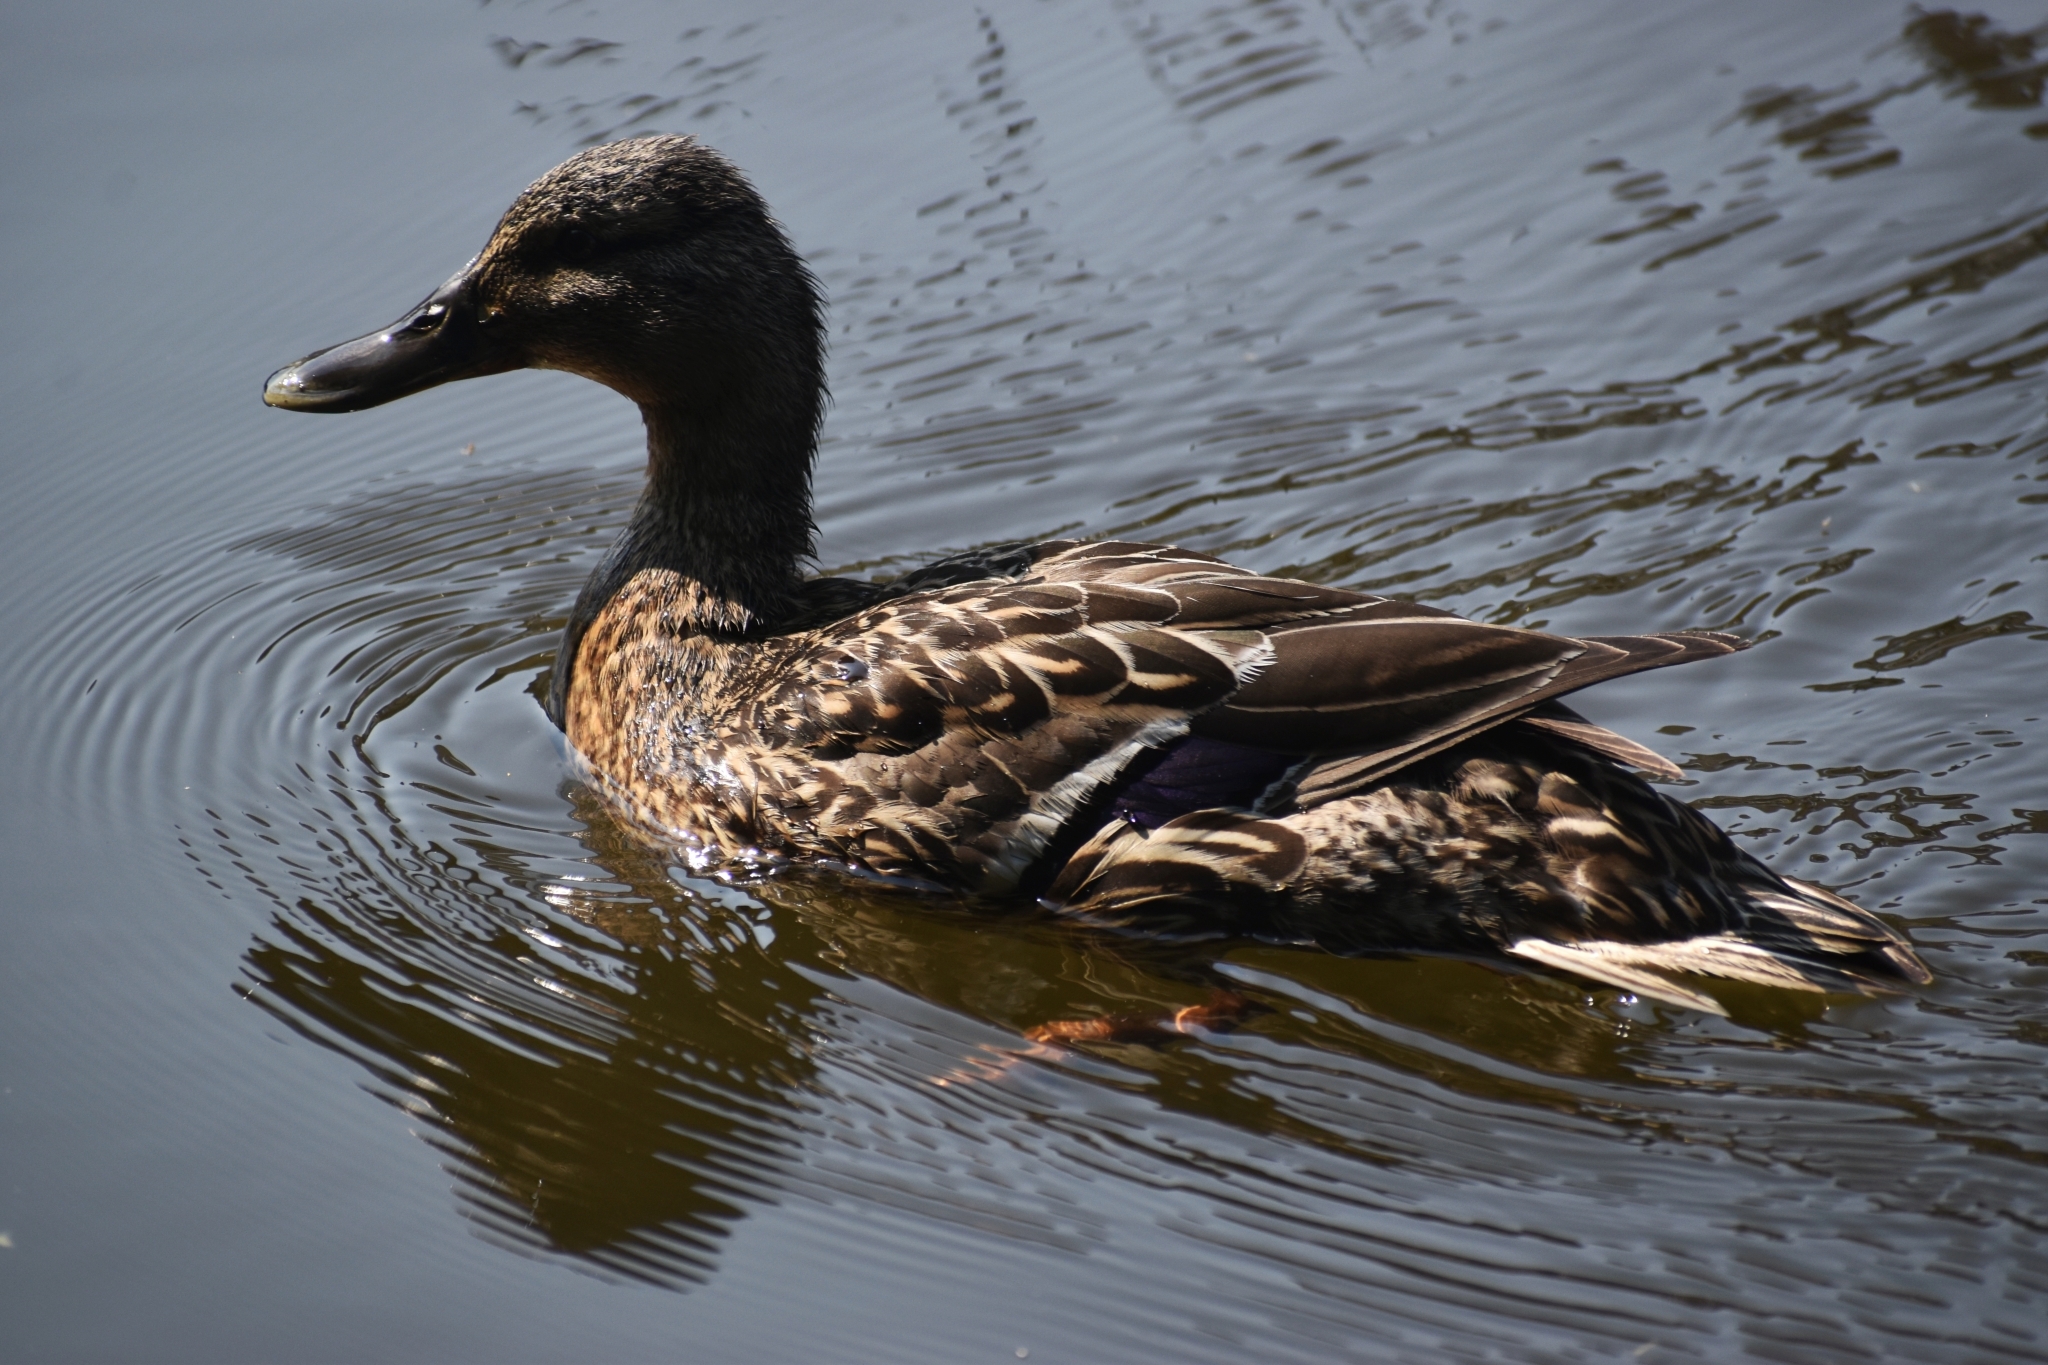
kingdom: Animalia
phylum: Chordata
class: Aves
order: Anseriformes
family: Anatidae
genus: Anas
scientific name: Anas platyrhynchos
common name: Mallard
